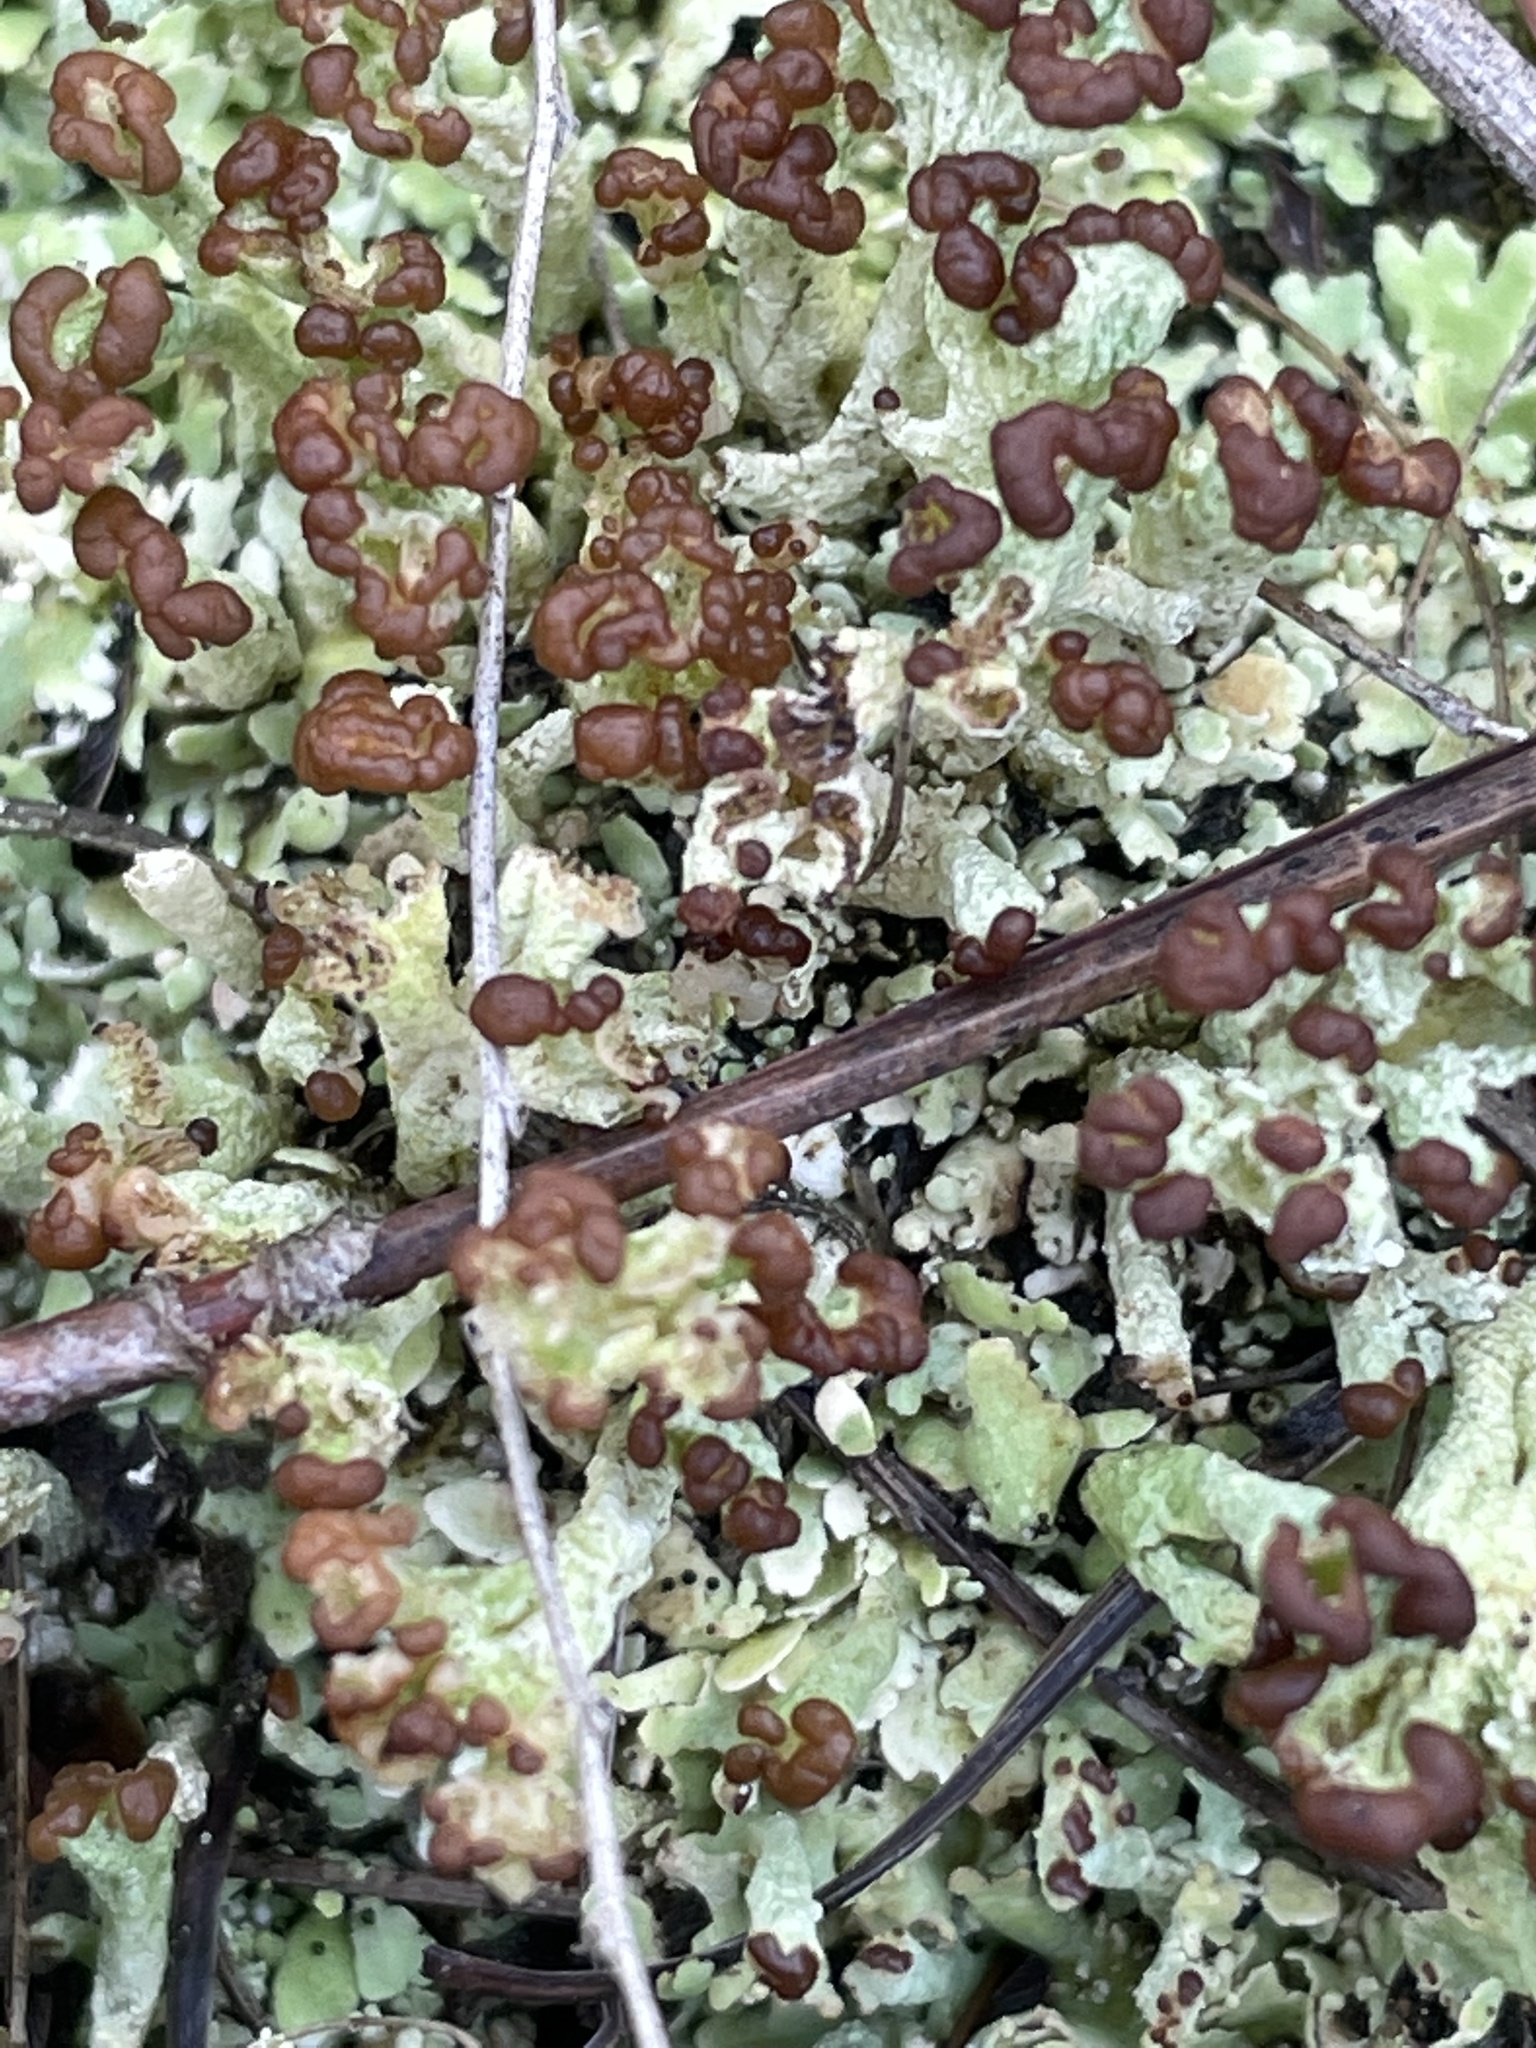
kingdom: Fungi
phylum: Ascomycota
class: Lecanoromycetes
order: Lecanorales
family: Cladoniaceae
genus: Cladonia
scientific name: Cladonia peziziformis
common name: Cup lichen
